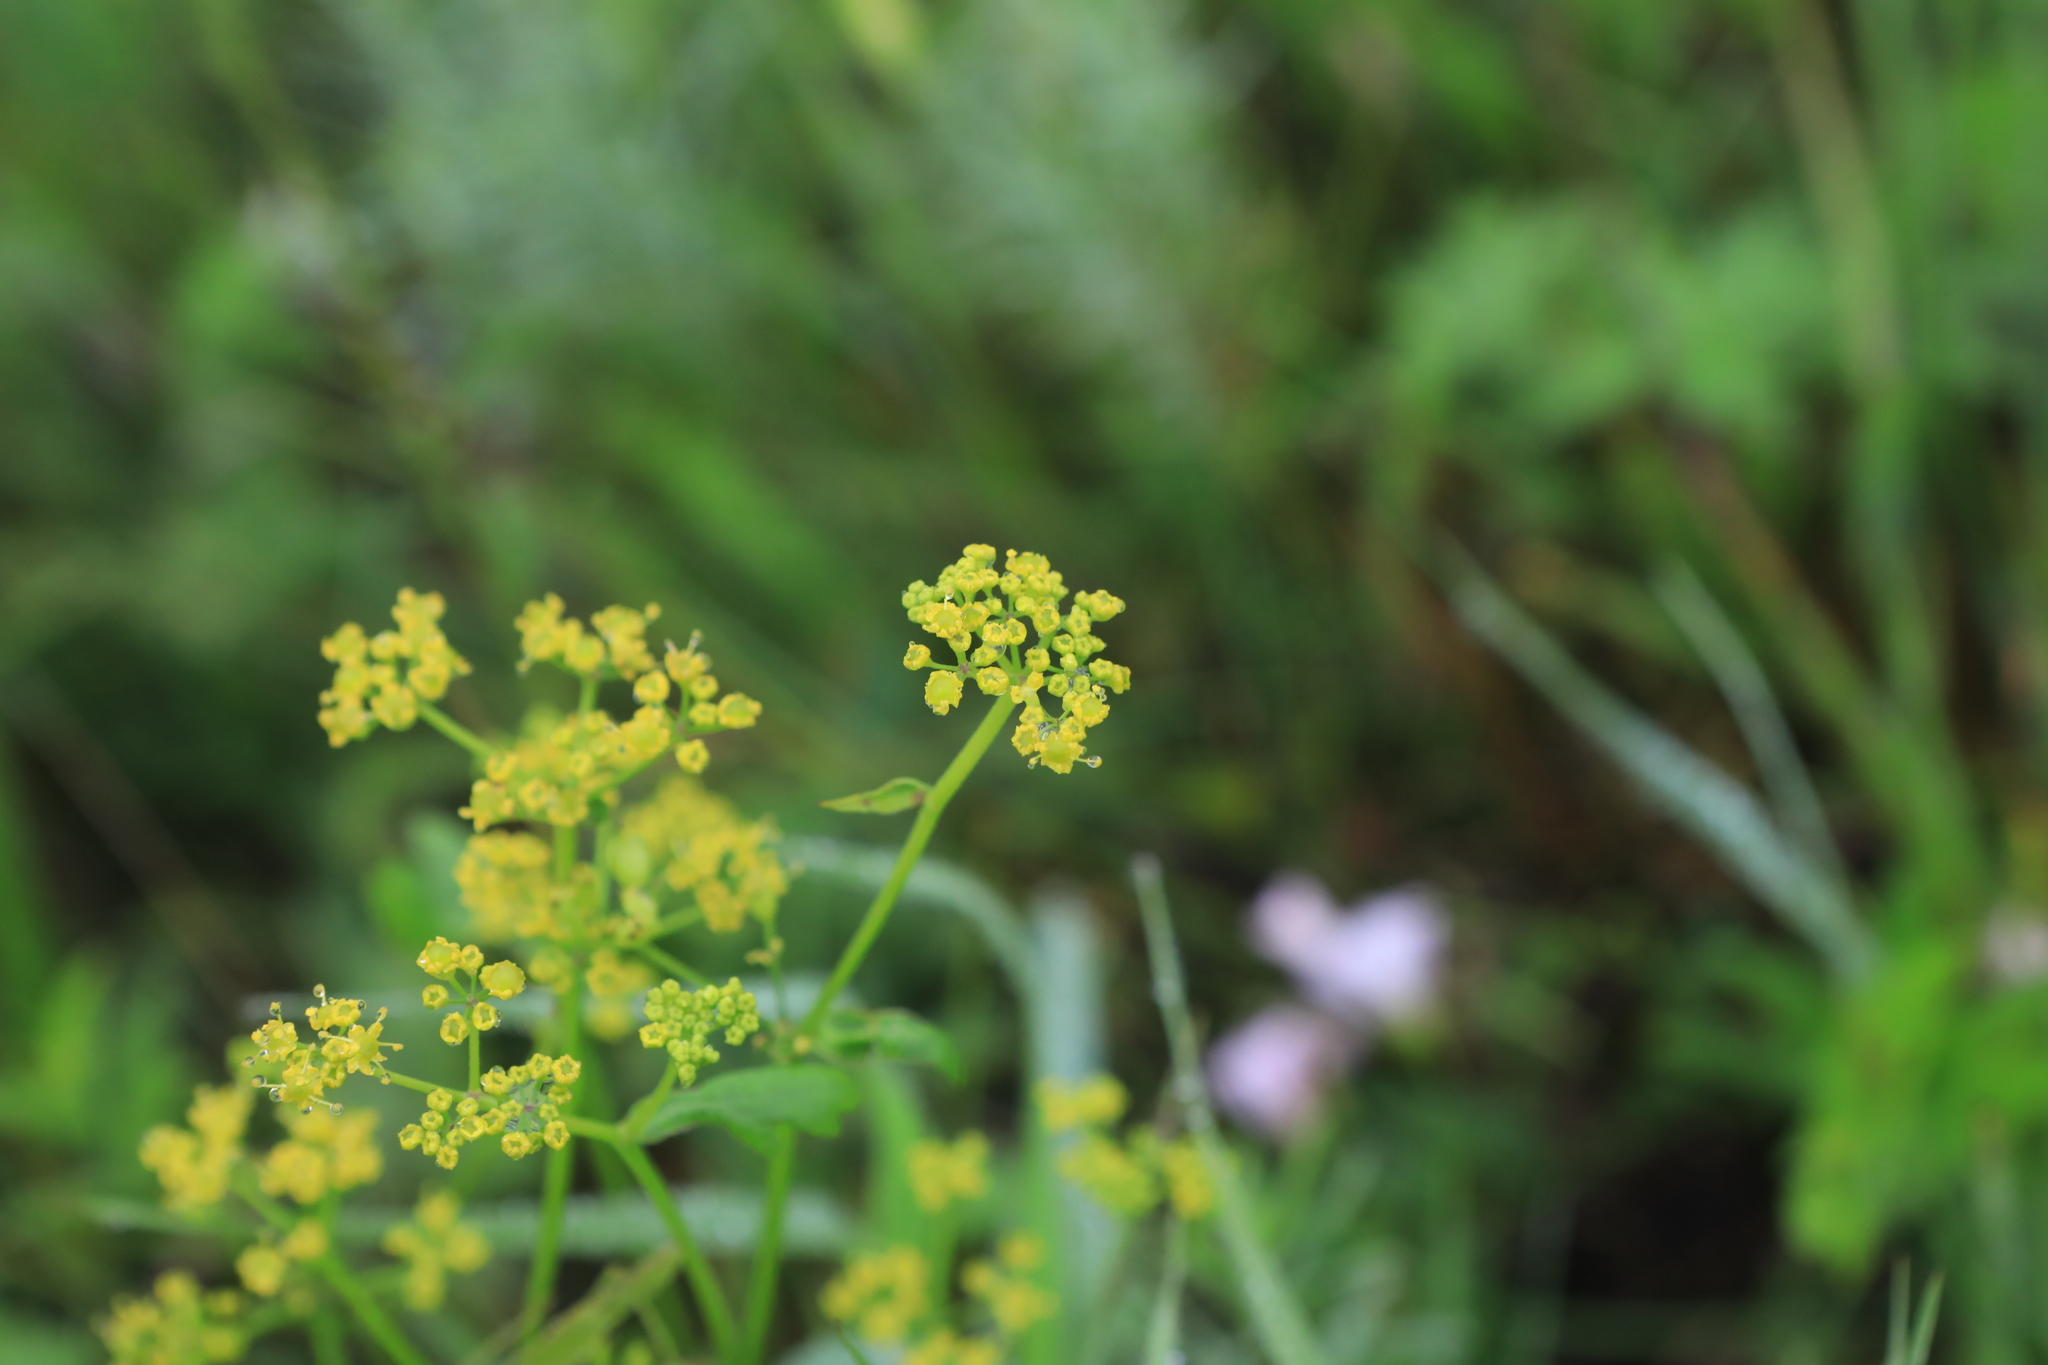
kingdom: Plantae
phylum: Tracheophyta
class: Magnoliopsida
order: Apiales
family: Apiaceae
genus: Pastinaca
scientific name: Pastinaca sativa
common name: Wild parsnip
